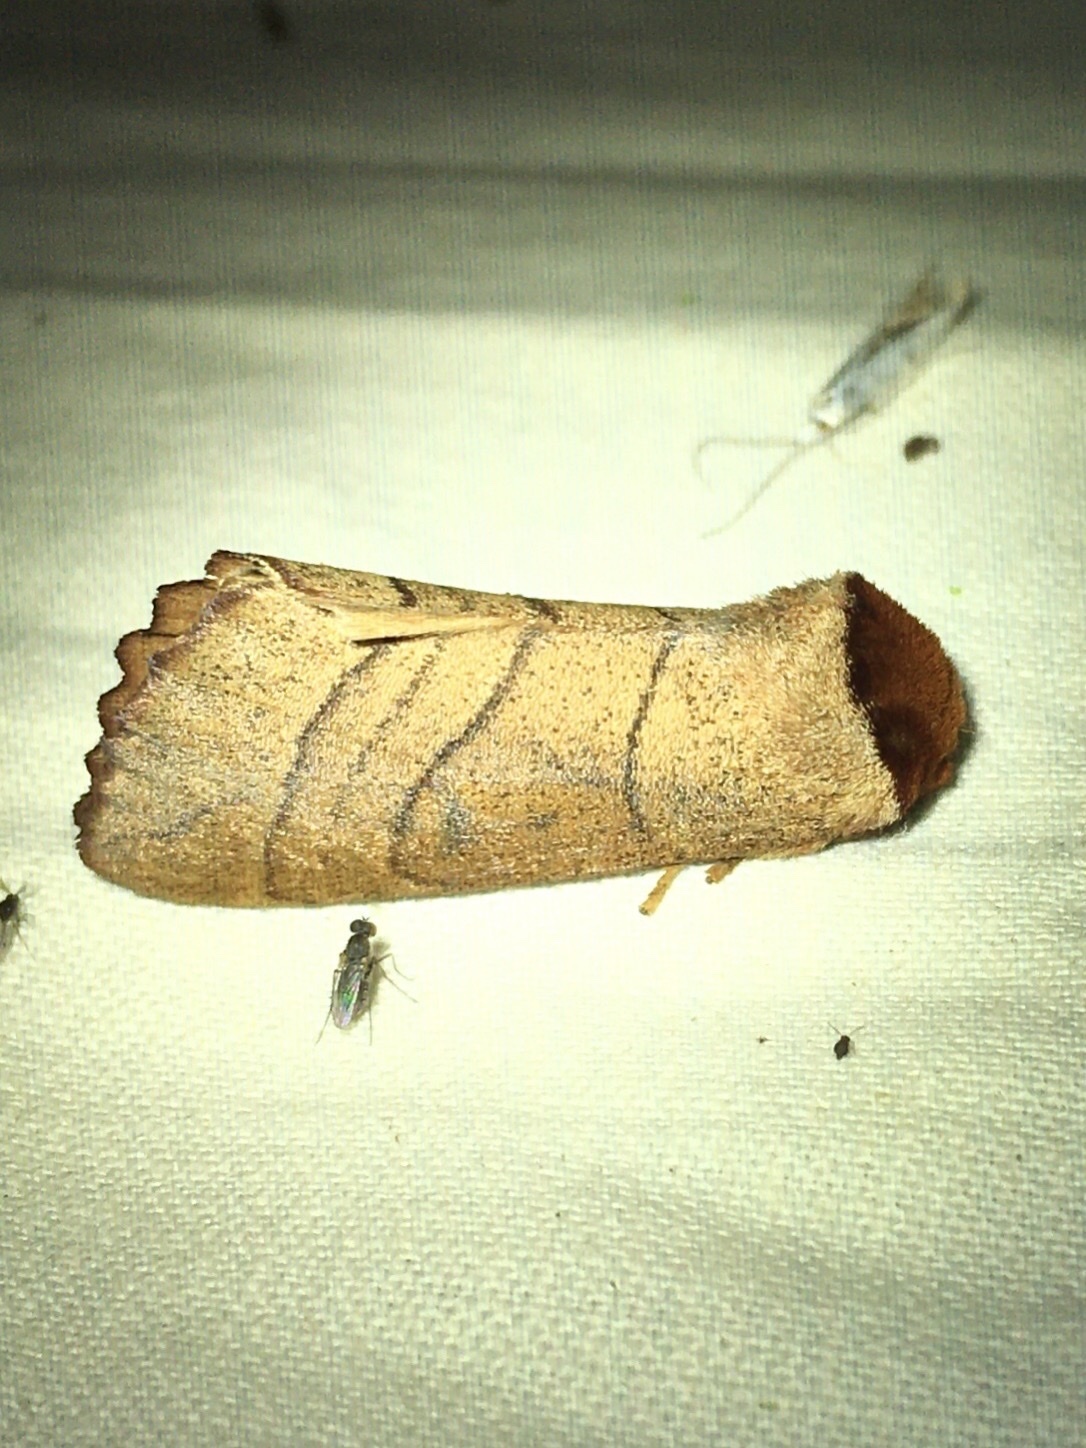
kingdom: Animalia
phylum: Arthropoda
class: Insecta
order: Lepidoptera
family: Notodontidae
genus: Datana
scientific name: Datana ministra
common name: Yellow-necked caterpillar moth
